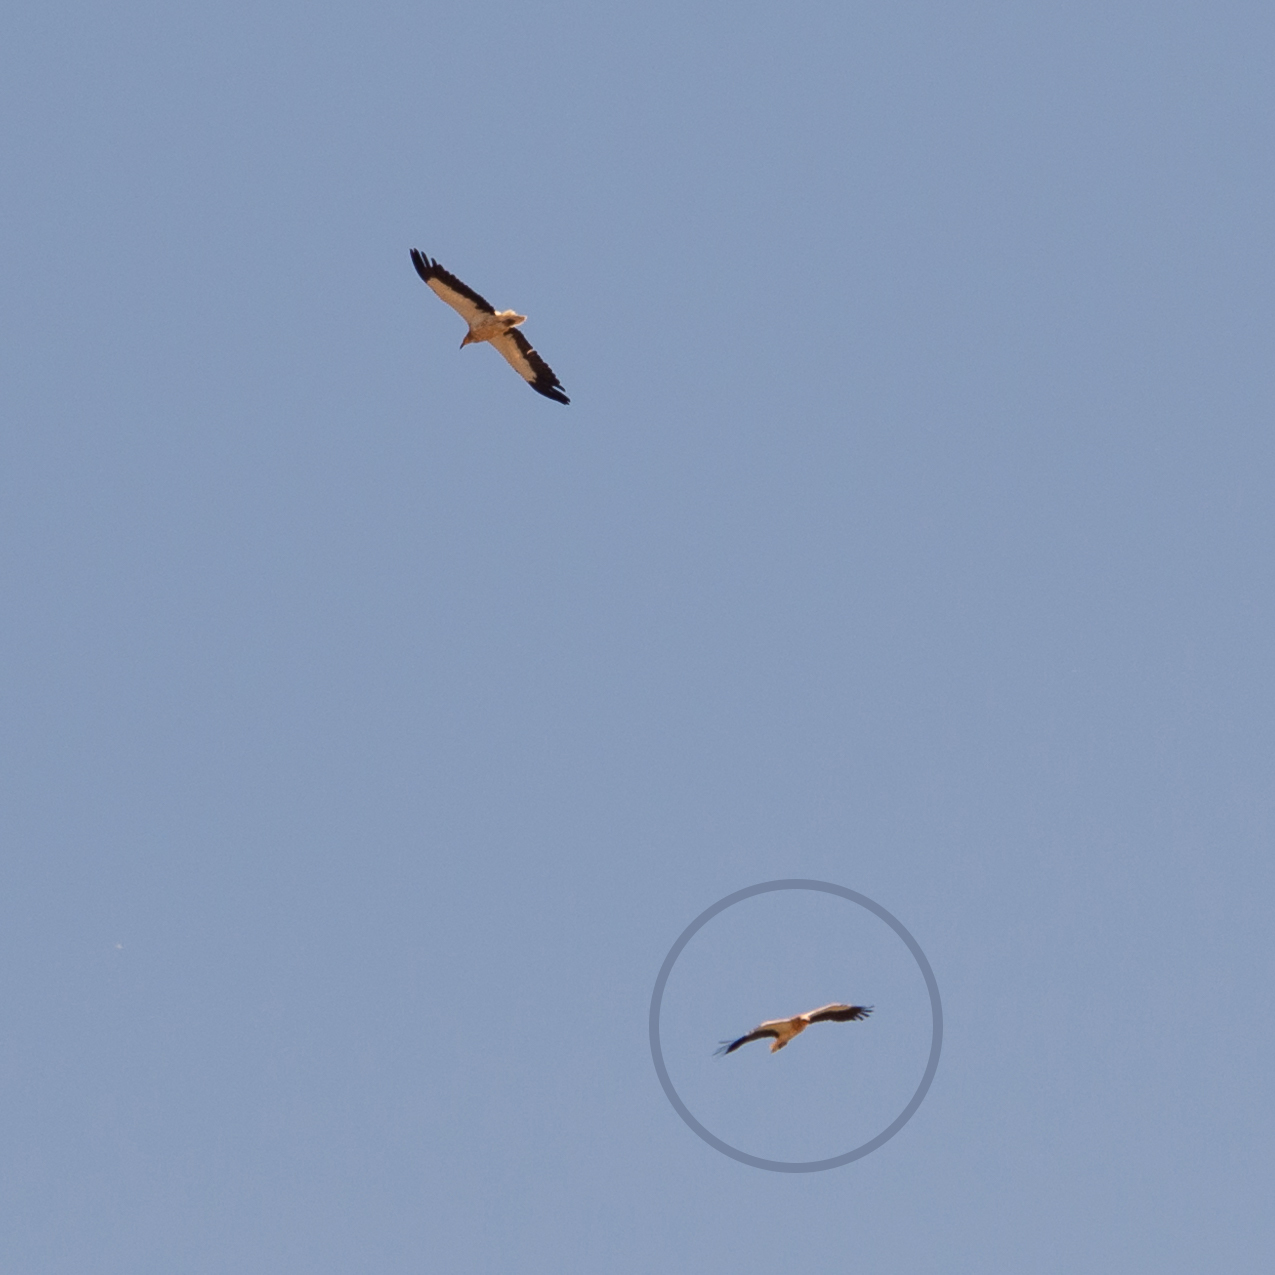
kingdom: Animalia
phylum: Chordata
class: Aves
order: Accipitriformes
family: Accipitridae
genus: Neophron
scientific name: Neophron percnopterus
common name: Egyptian vulture
